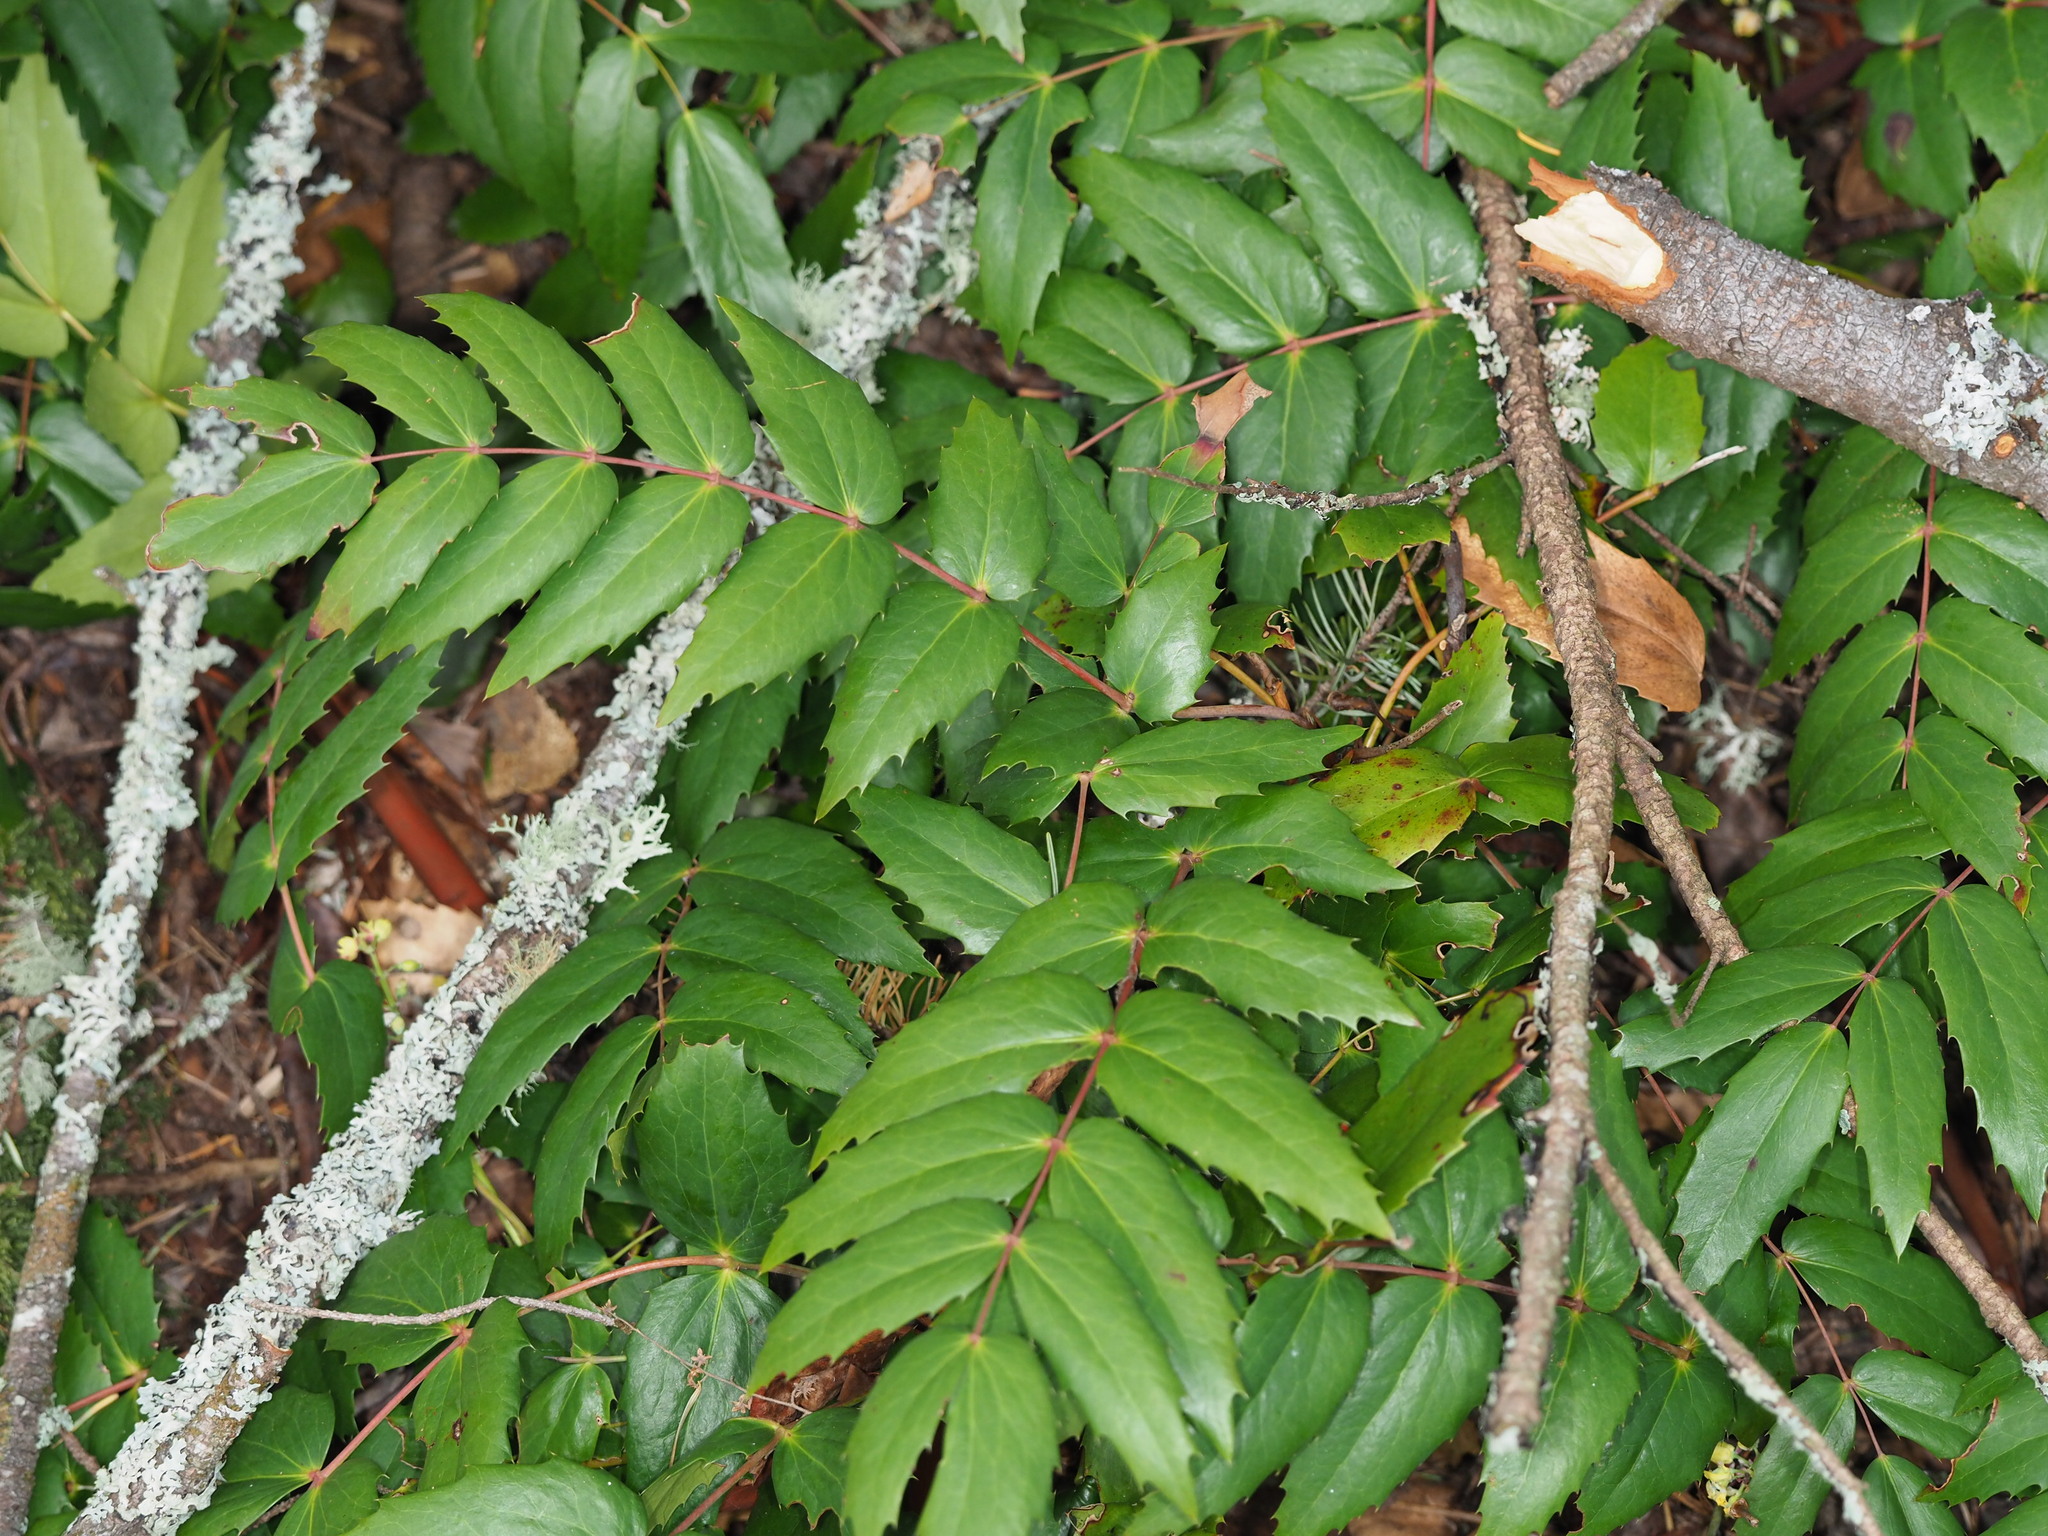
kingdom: Plantae
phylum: Tracheophyta
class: Magnoliopsida
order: Ranunculales
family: Berberidaceae
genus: Mahonia
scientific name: Mahonia nervosa
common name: Cascade oregon-grape
